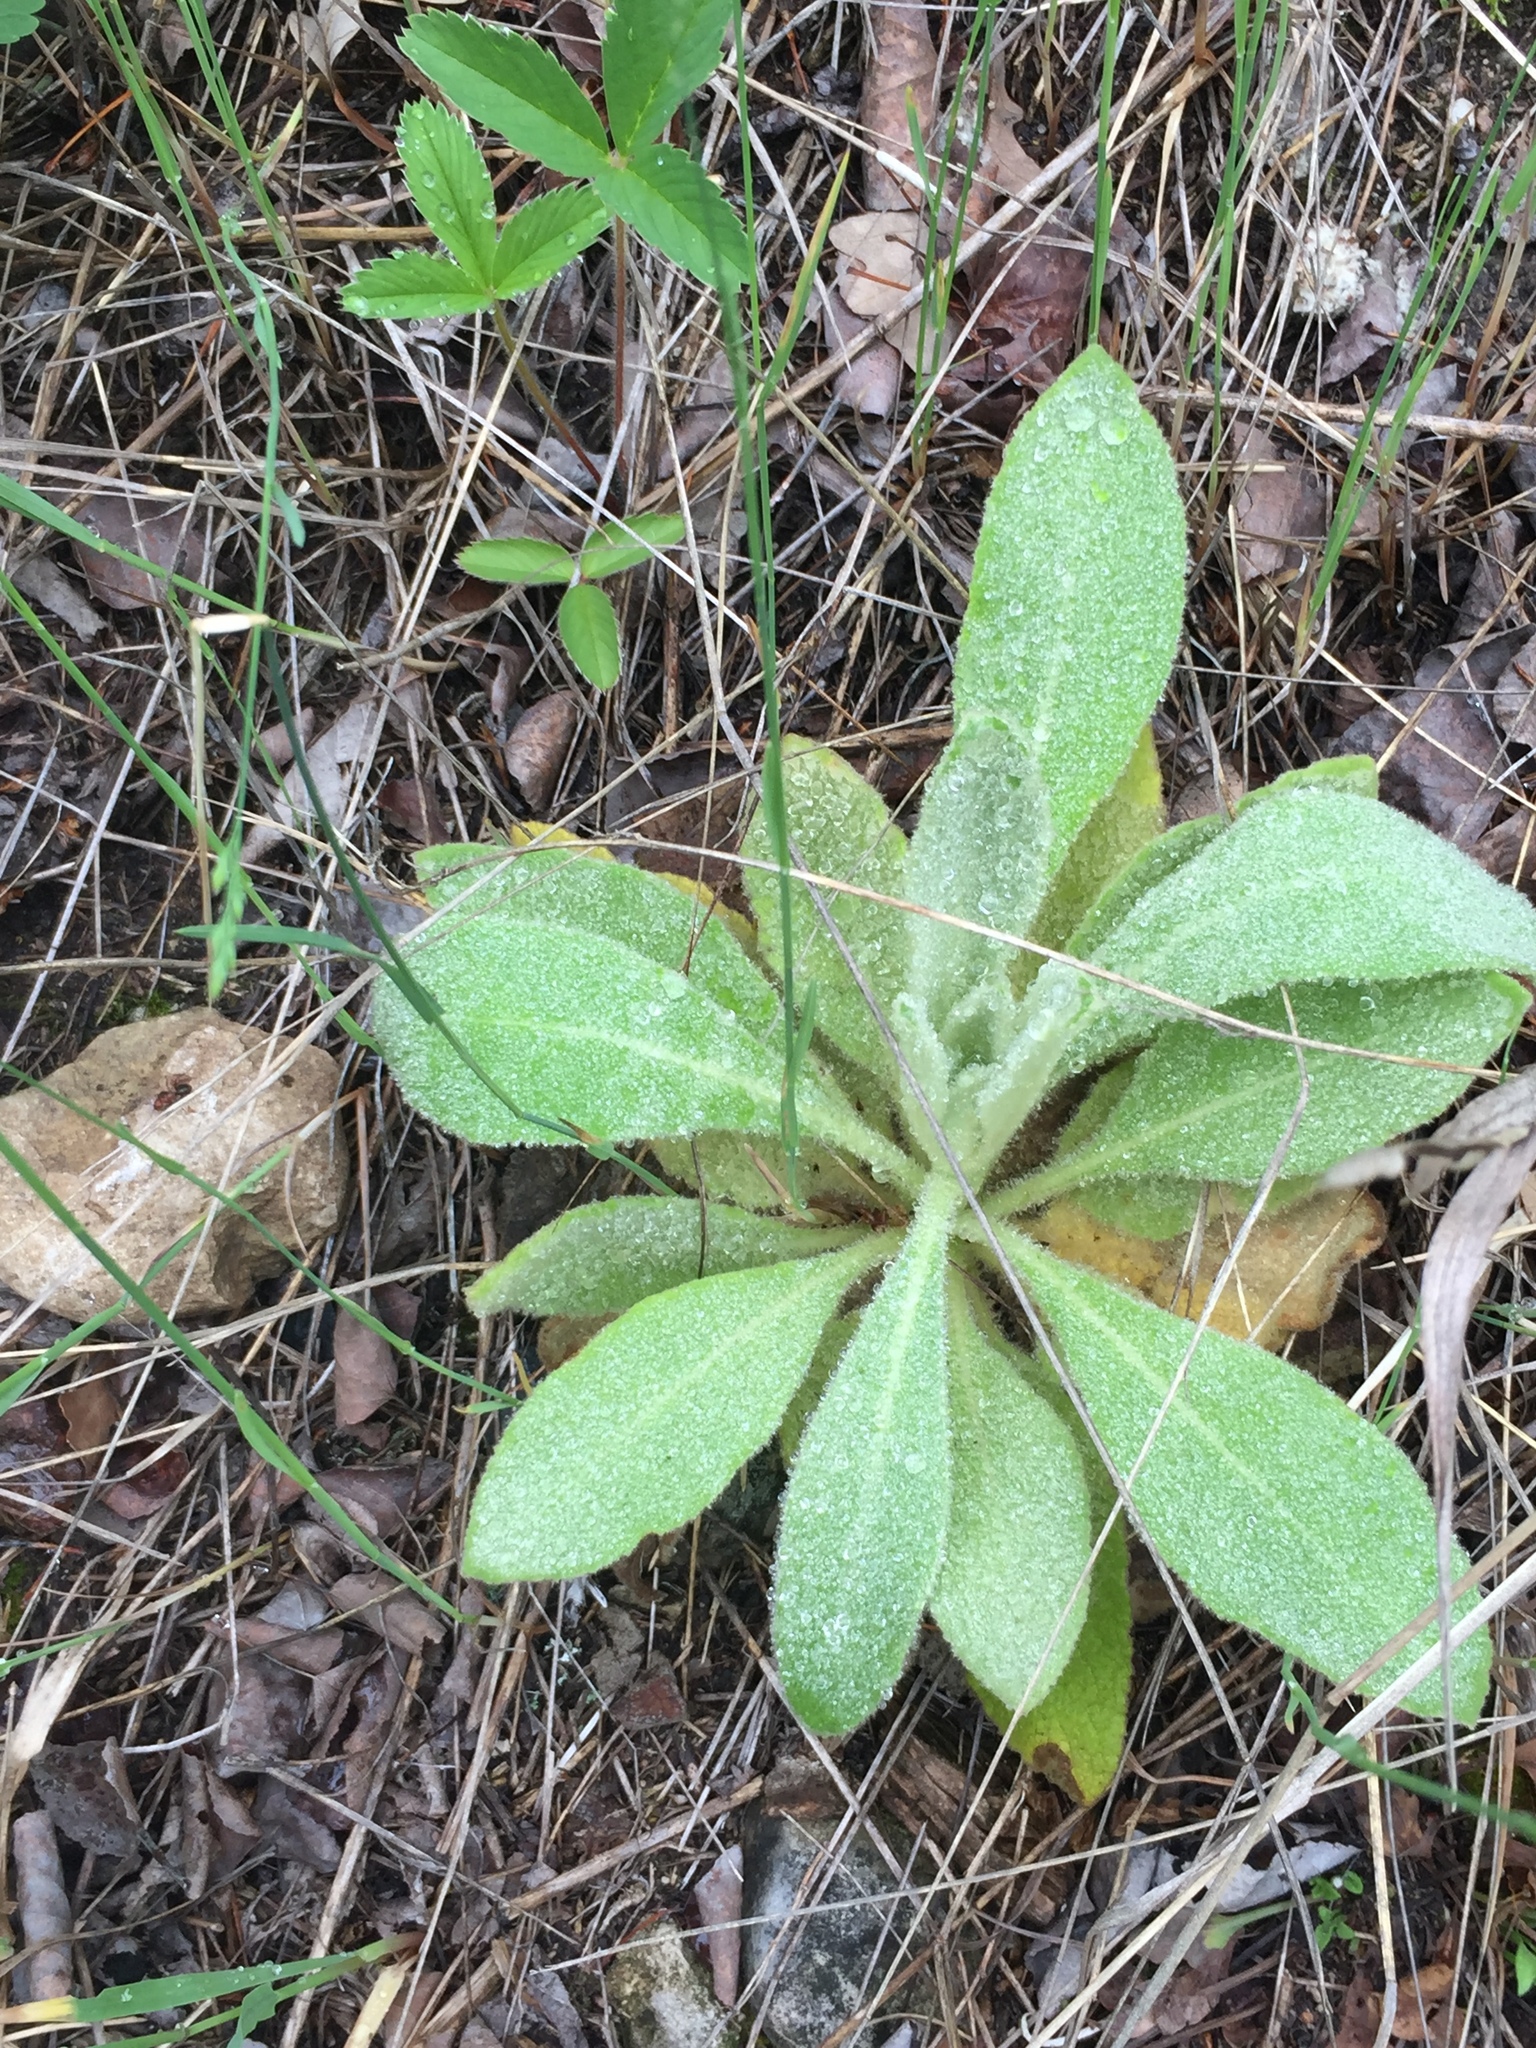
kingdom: Plantae
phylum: Tracheophyta
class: Magnoliopsida
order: Lamiales
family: Scrophulariaceae
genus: Verbascum
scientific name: Verbascum thapsus
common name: Common mullein
